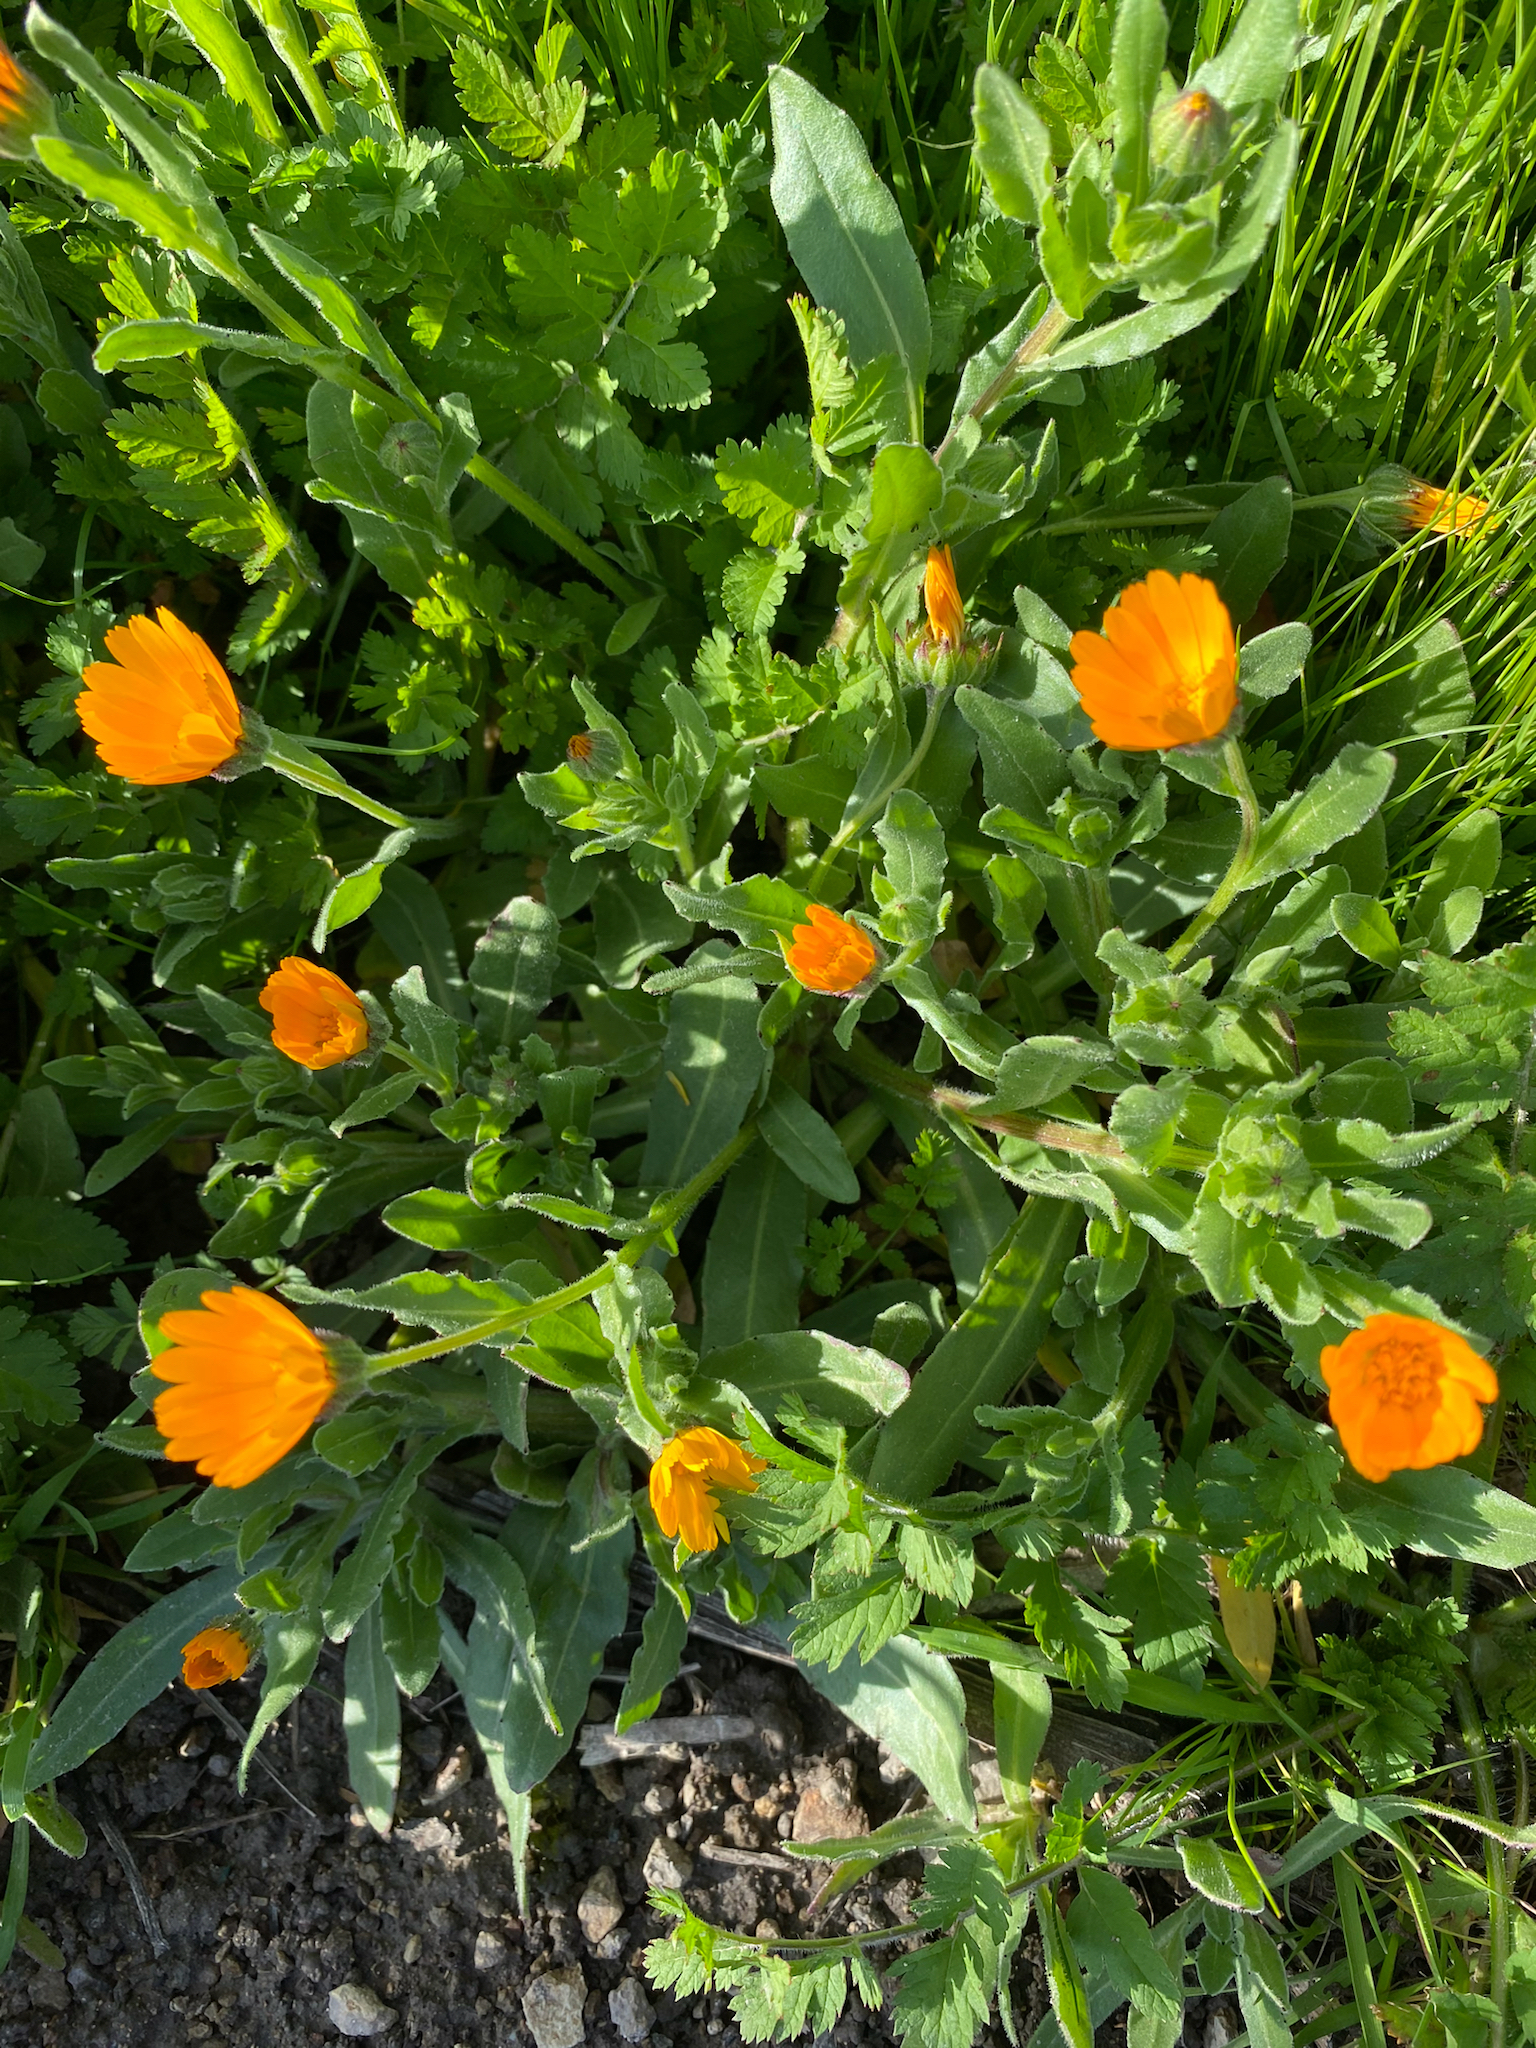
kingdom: Plantae
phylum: Tracheophyta
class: Magnoliopsida
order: Asterales
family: Asteraceae
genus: Calendula
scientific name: Calendula arvensis
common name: Field marigold
